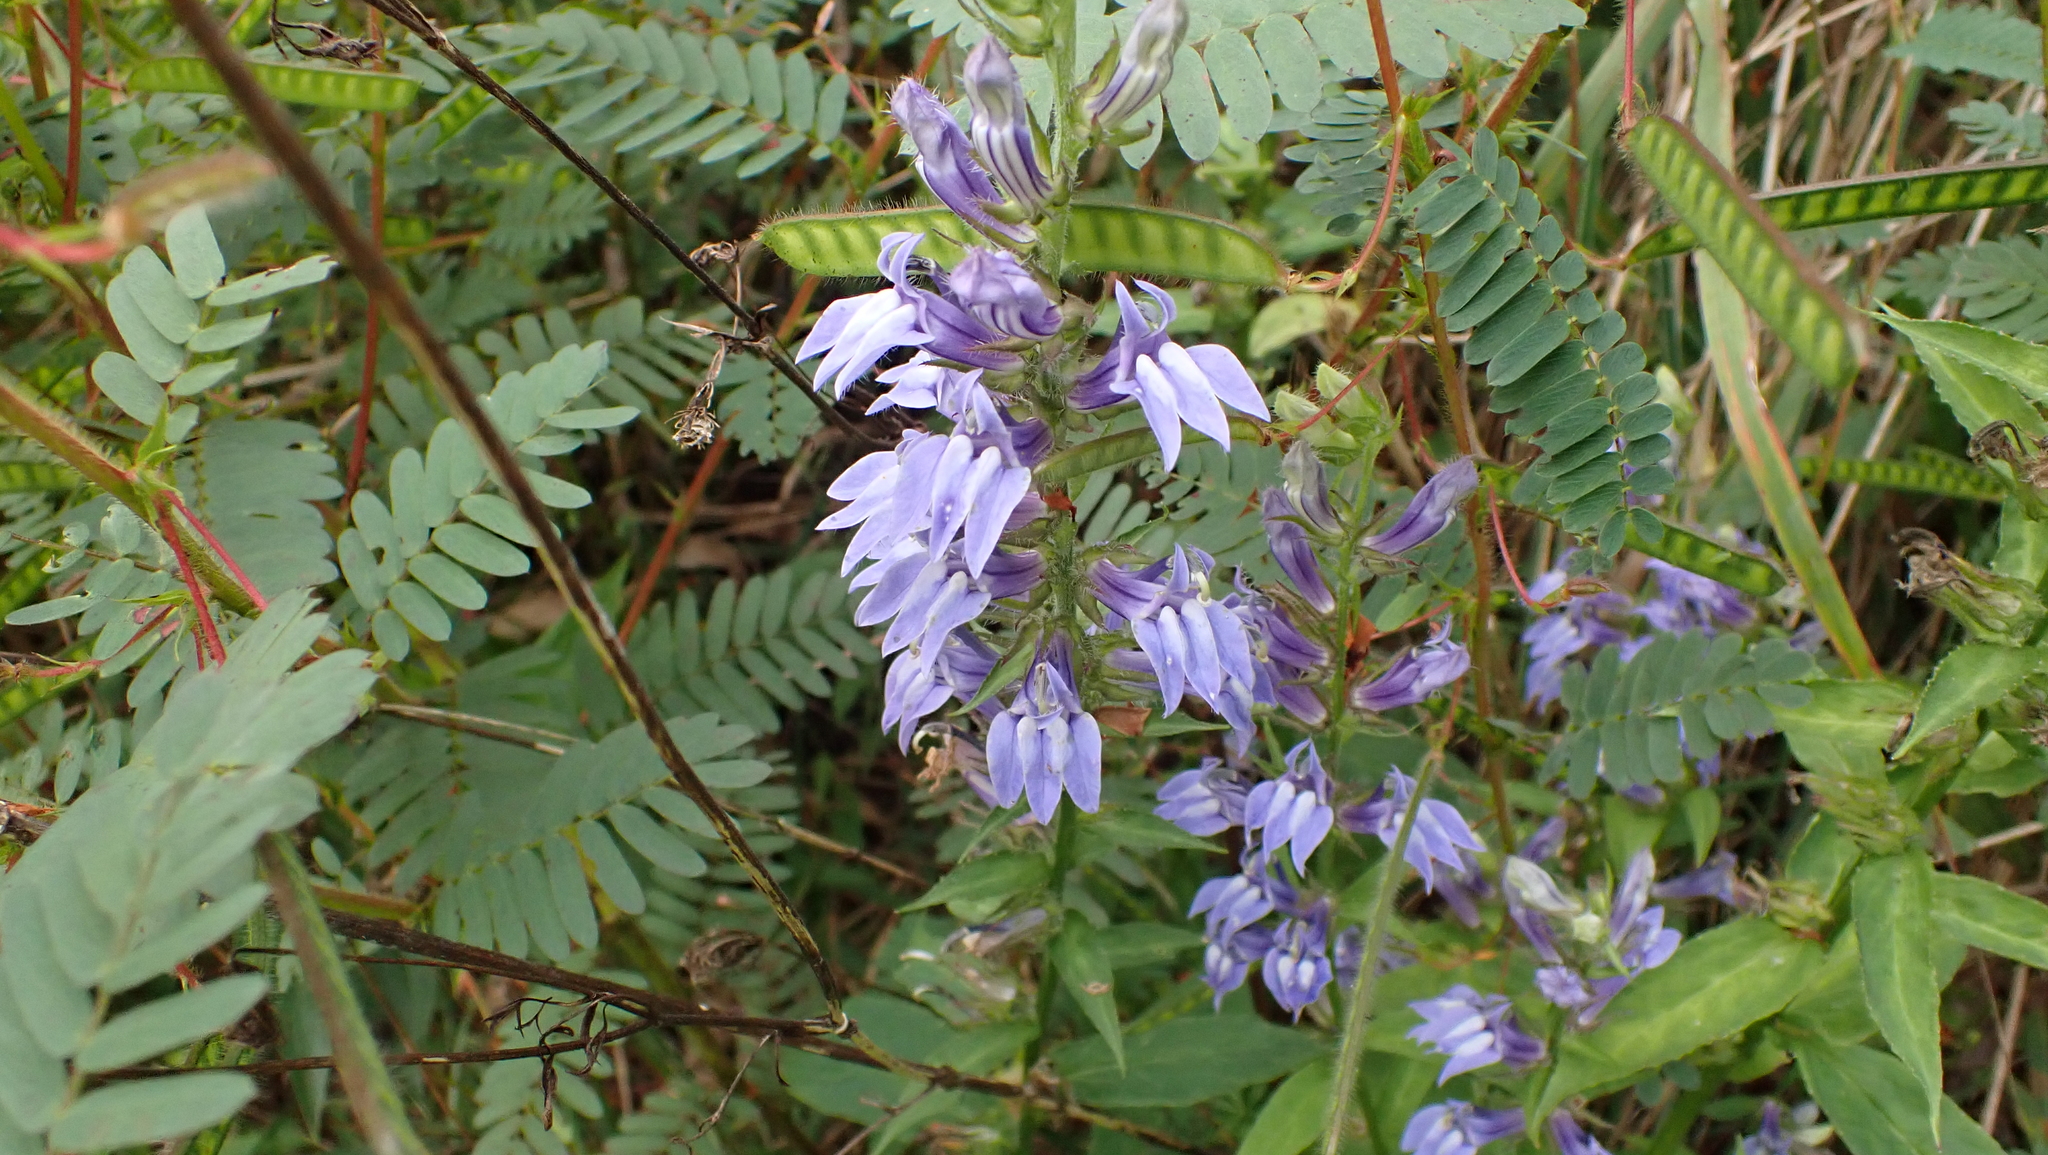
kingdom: Plantae
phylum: Tracheophyta
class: Magnoliopsida
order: Asterales
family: Campanulaceae
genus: Lobelia
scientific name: Lobelia siphilitica
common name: Great lobelia
